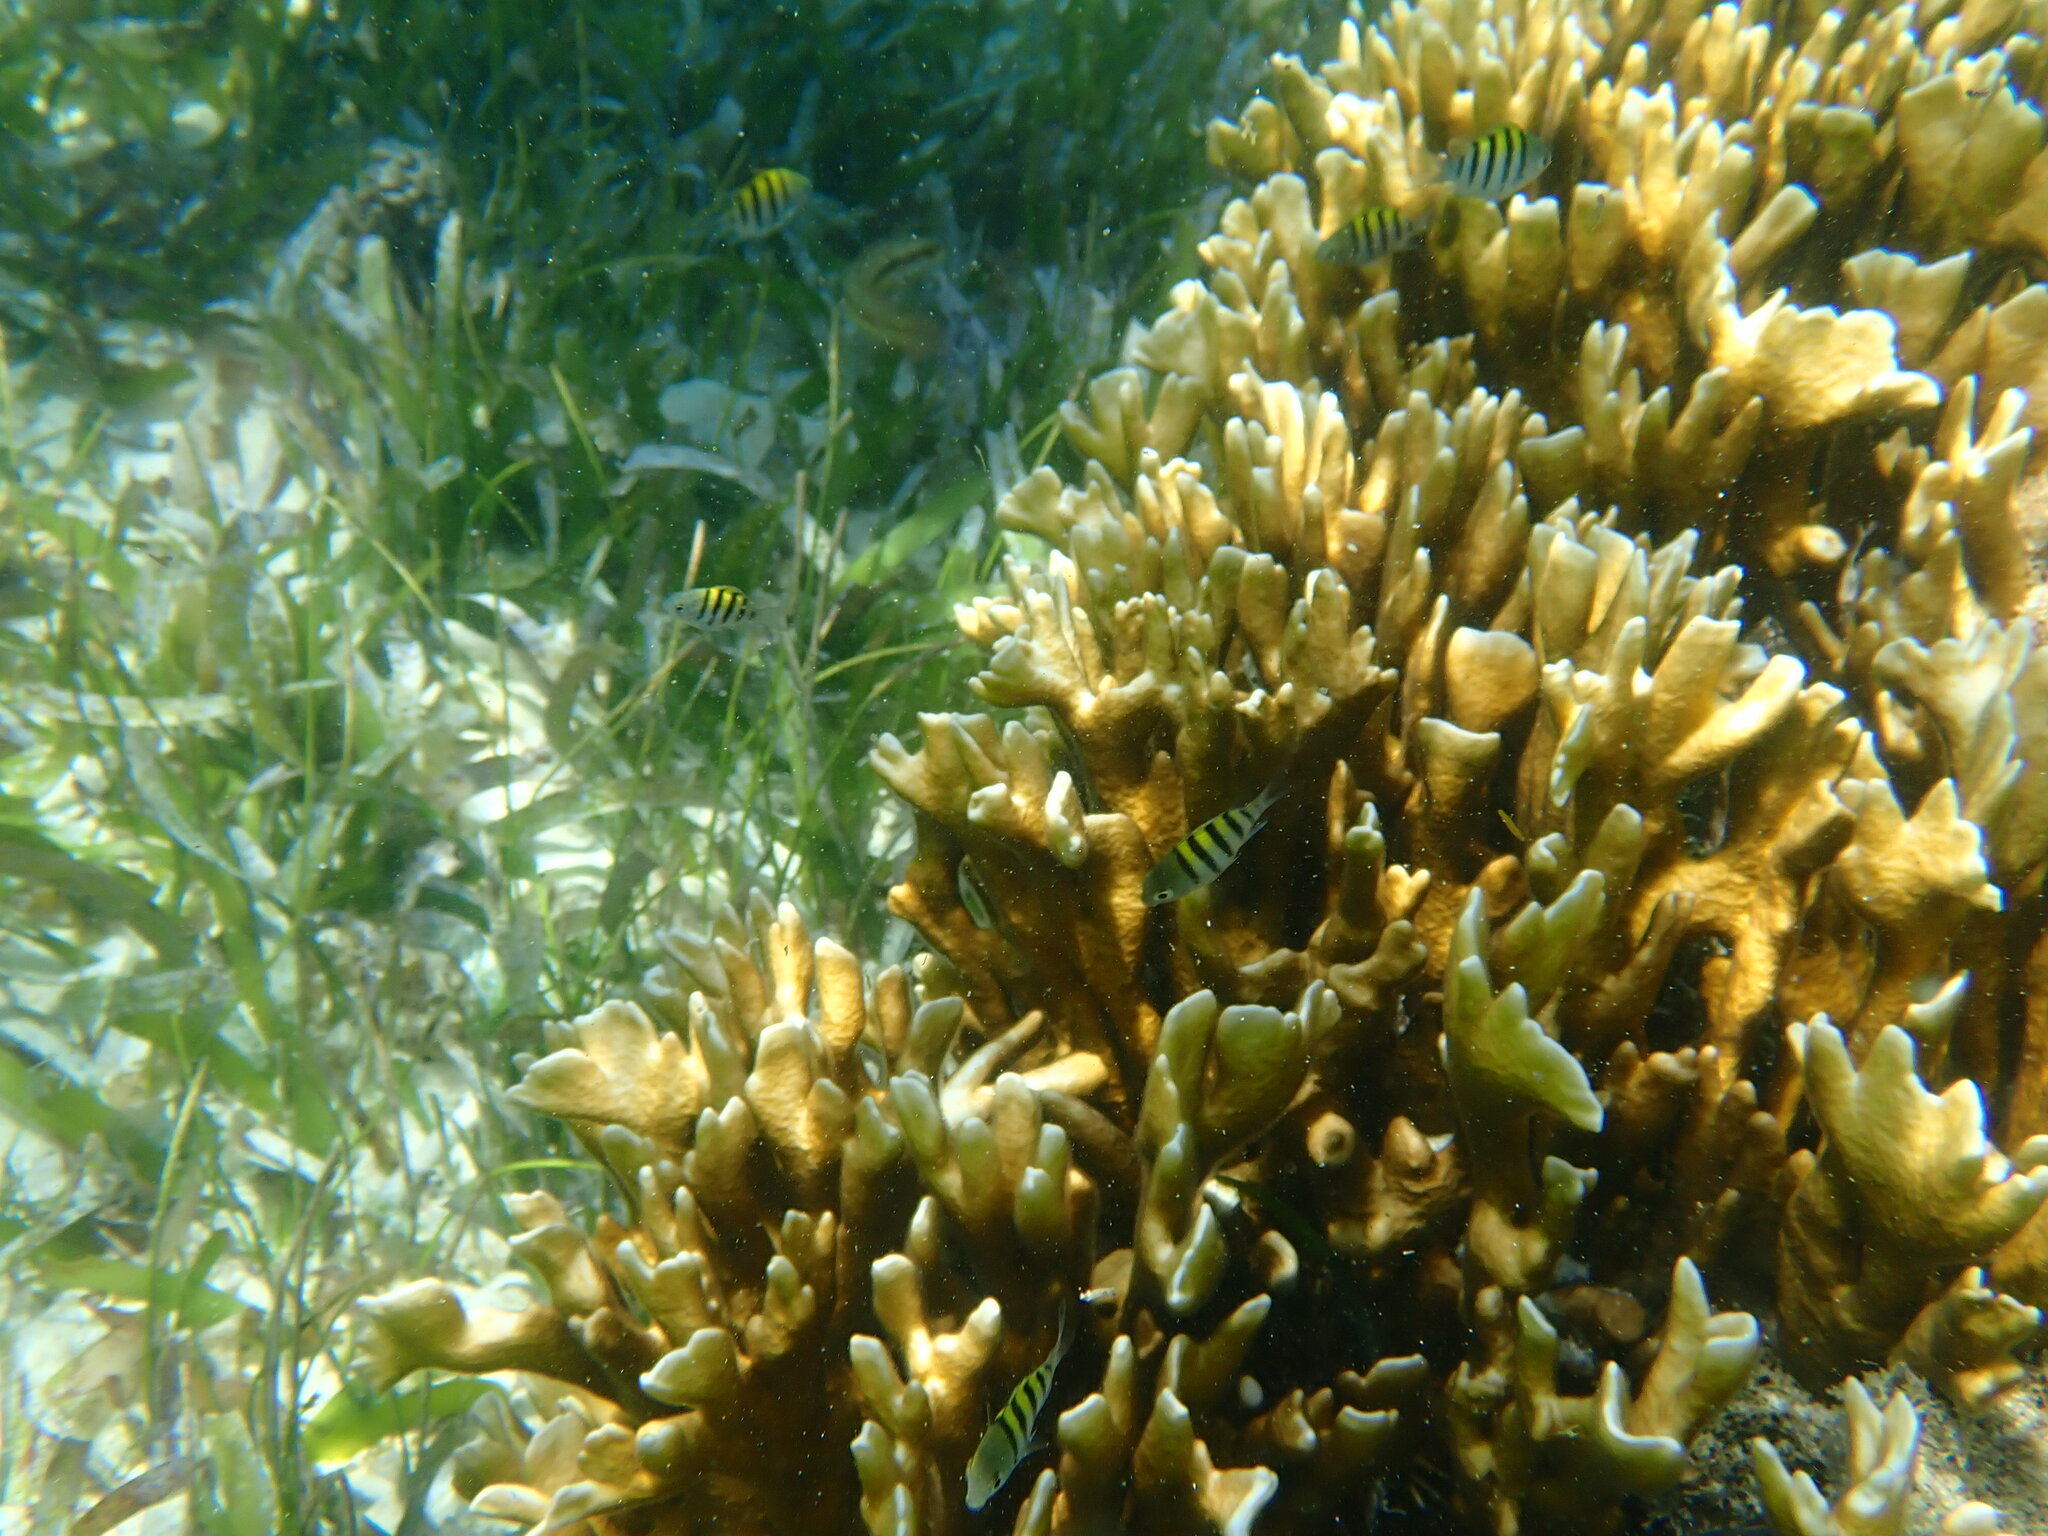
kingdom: Animalia
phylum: Chordata
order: Perciformes
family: Pomacentridae
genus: Abudefduf
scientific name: Abudefduf saxatilis
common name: Sergeant major
